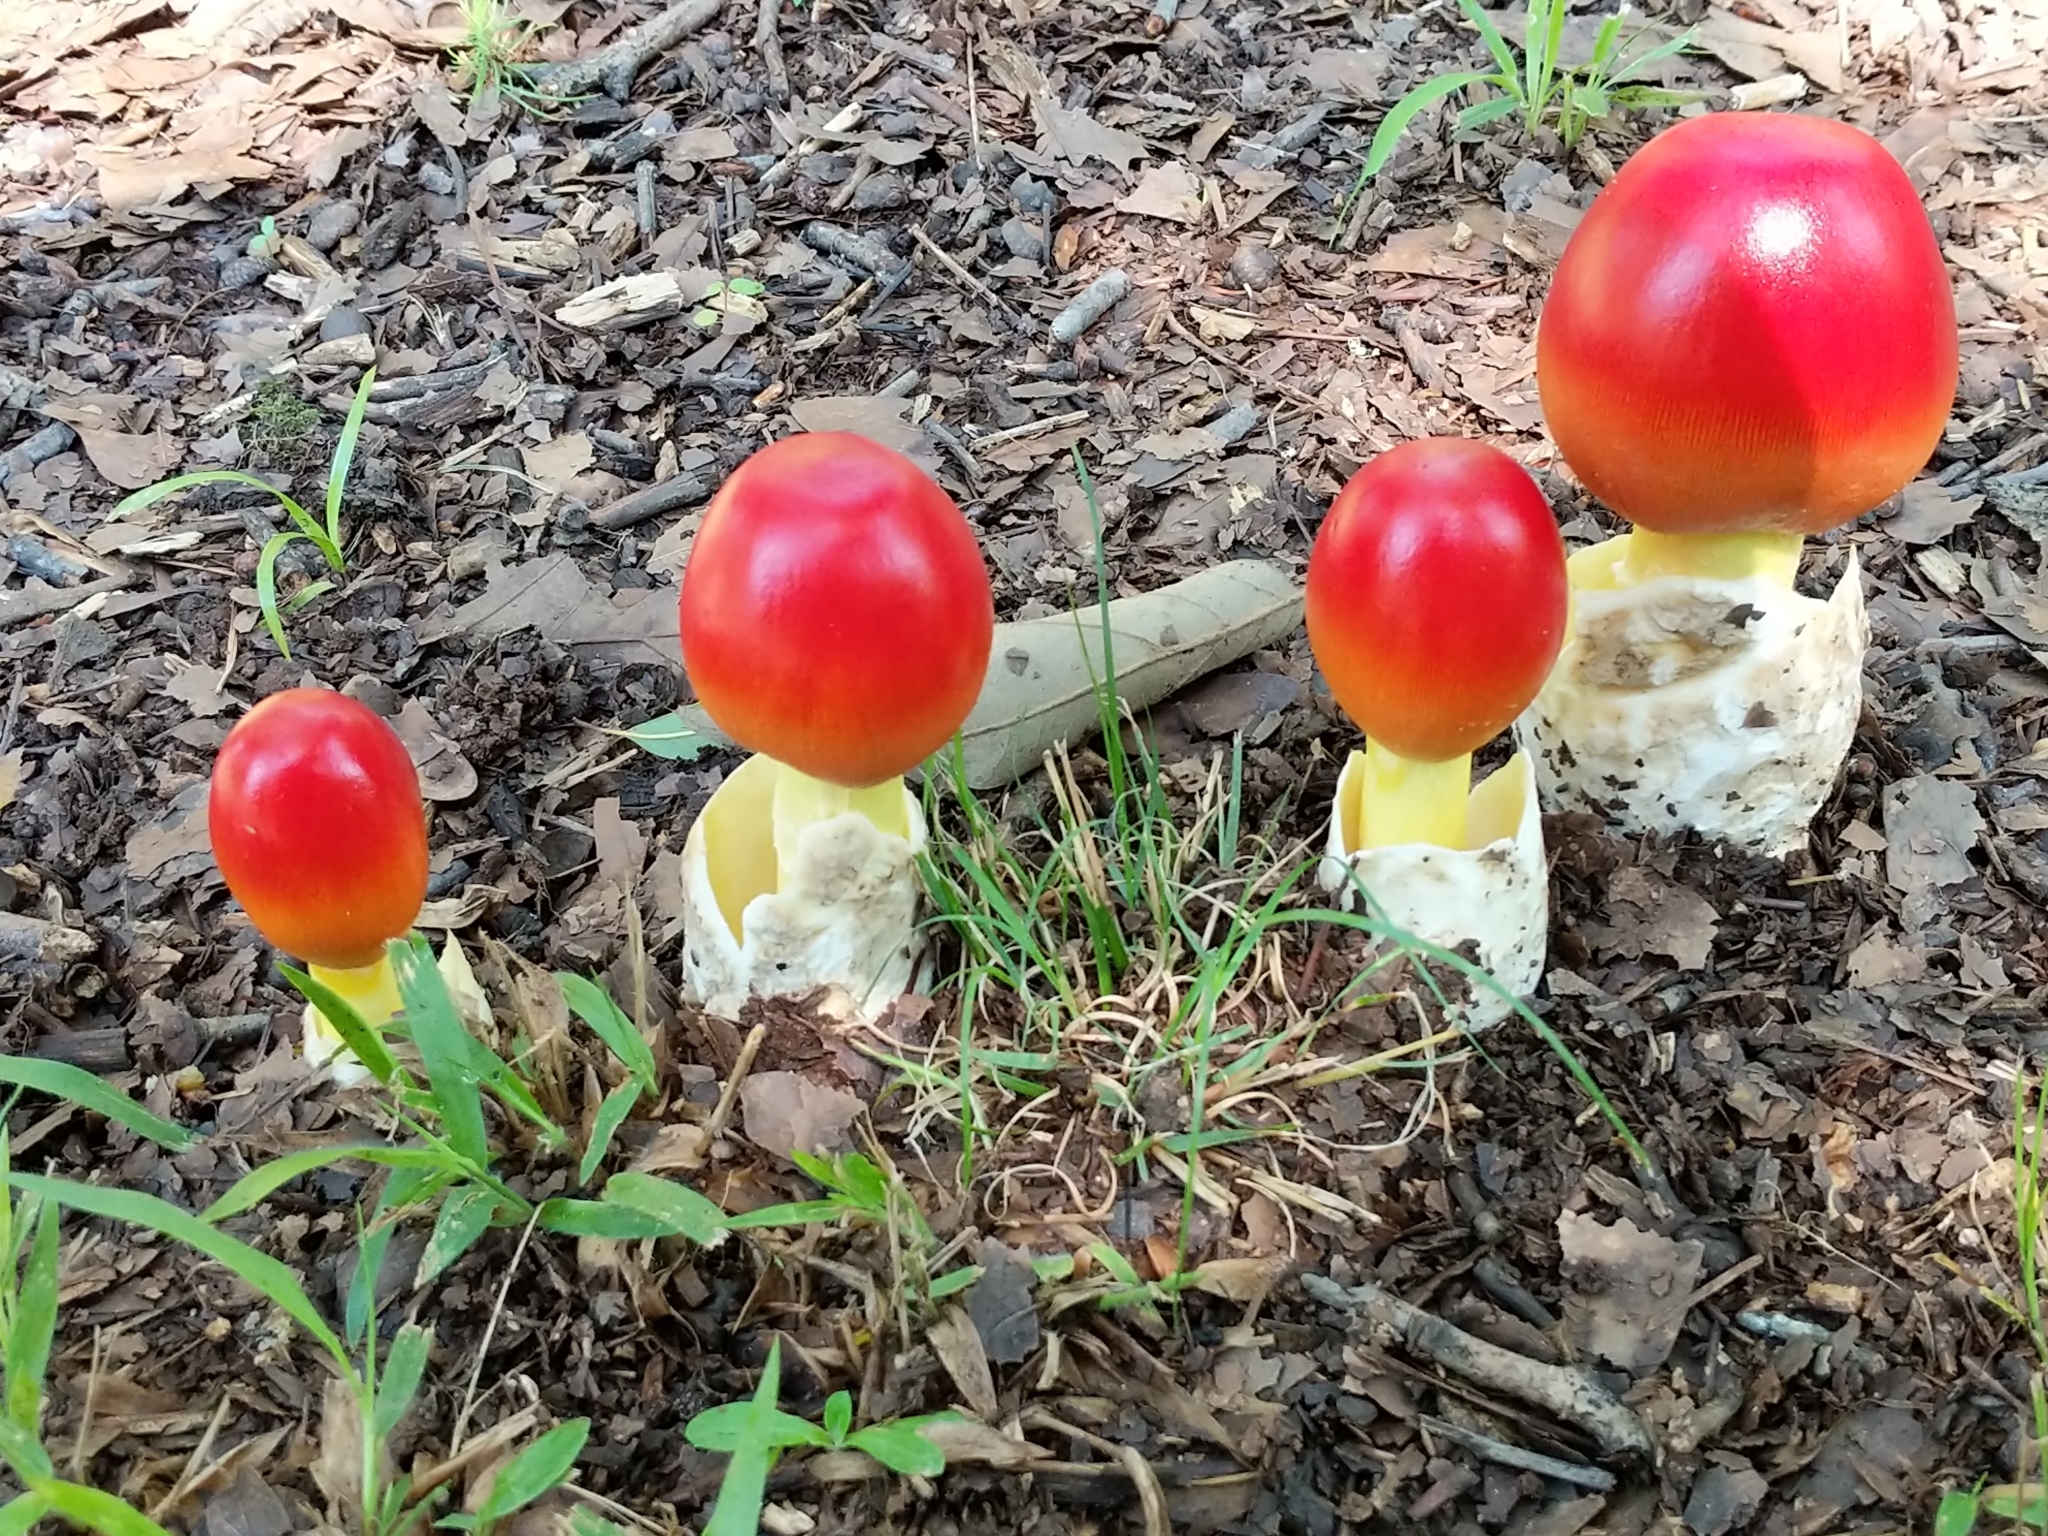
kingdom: Fungi
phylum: Basidiomycota
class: Agaricomycetes
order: Agaricales
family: Amanitaceae
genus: Amanita
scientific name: Amanita jacksonii
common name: Jackson's slender caesar
